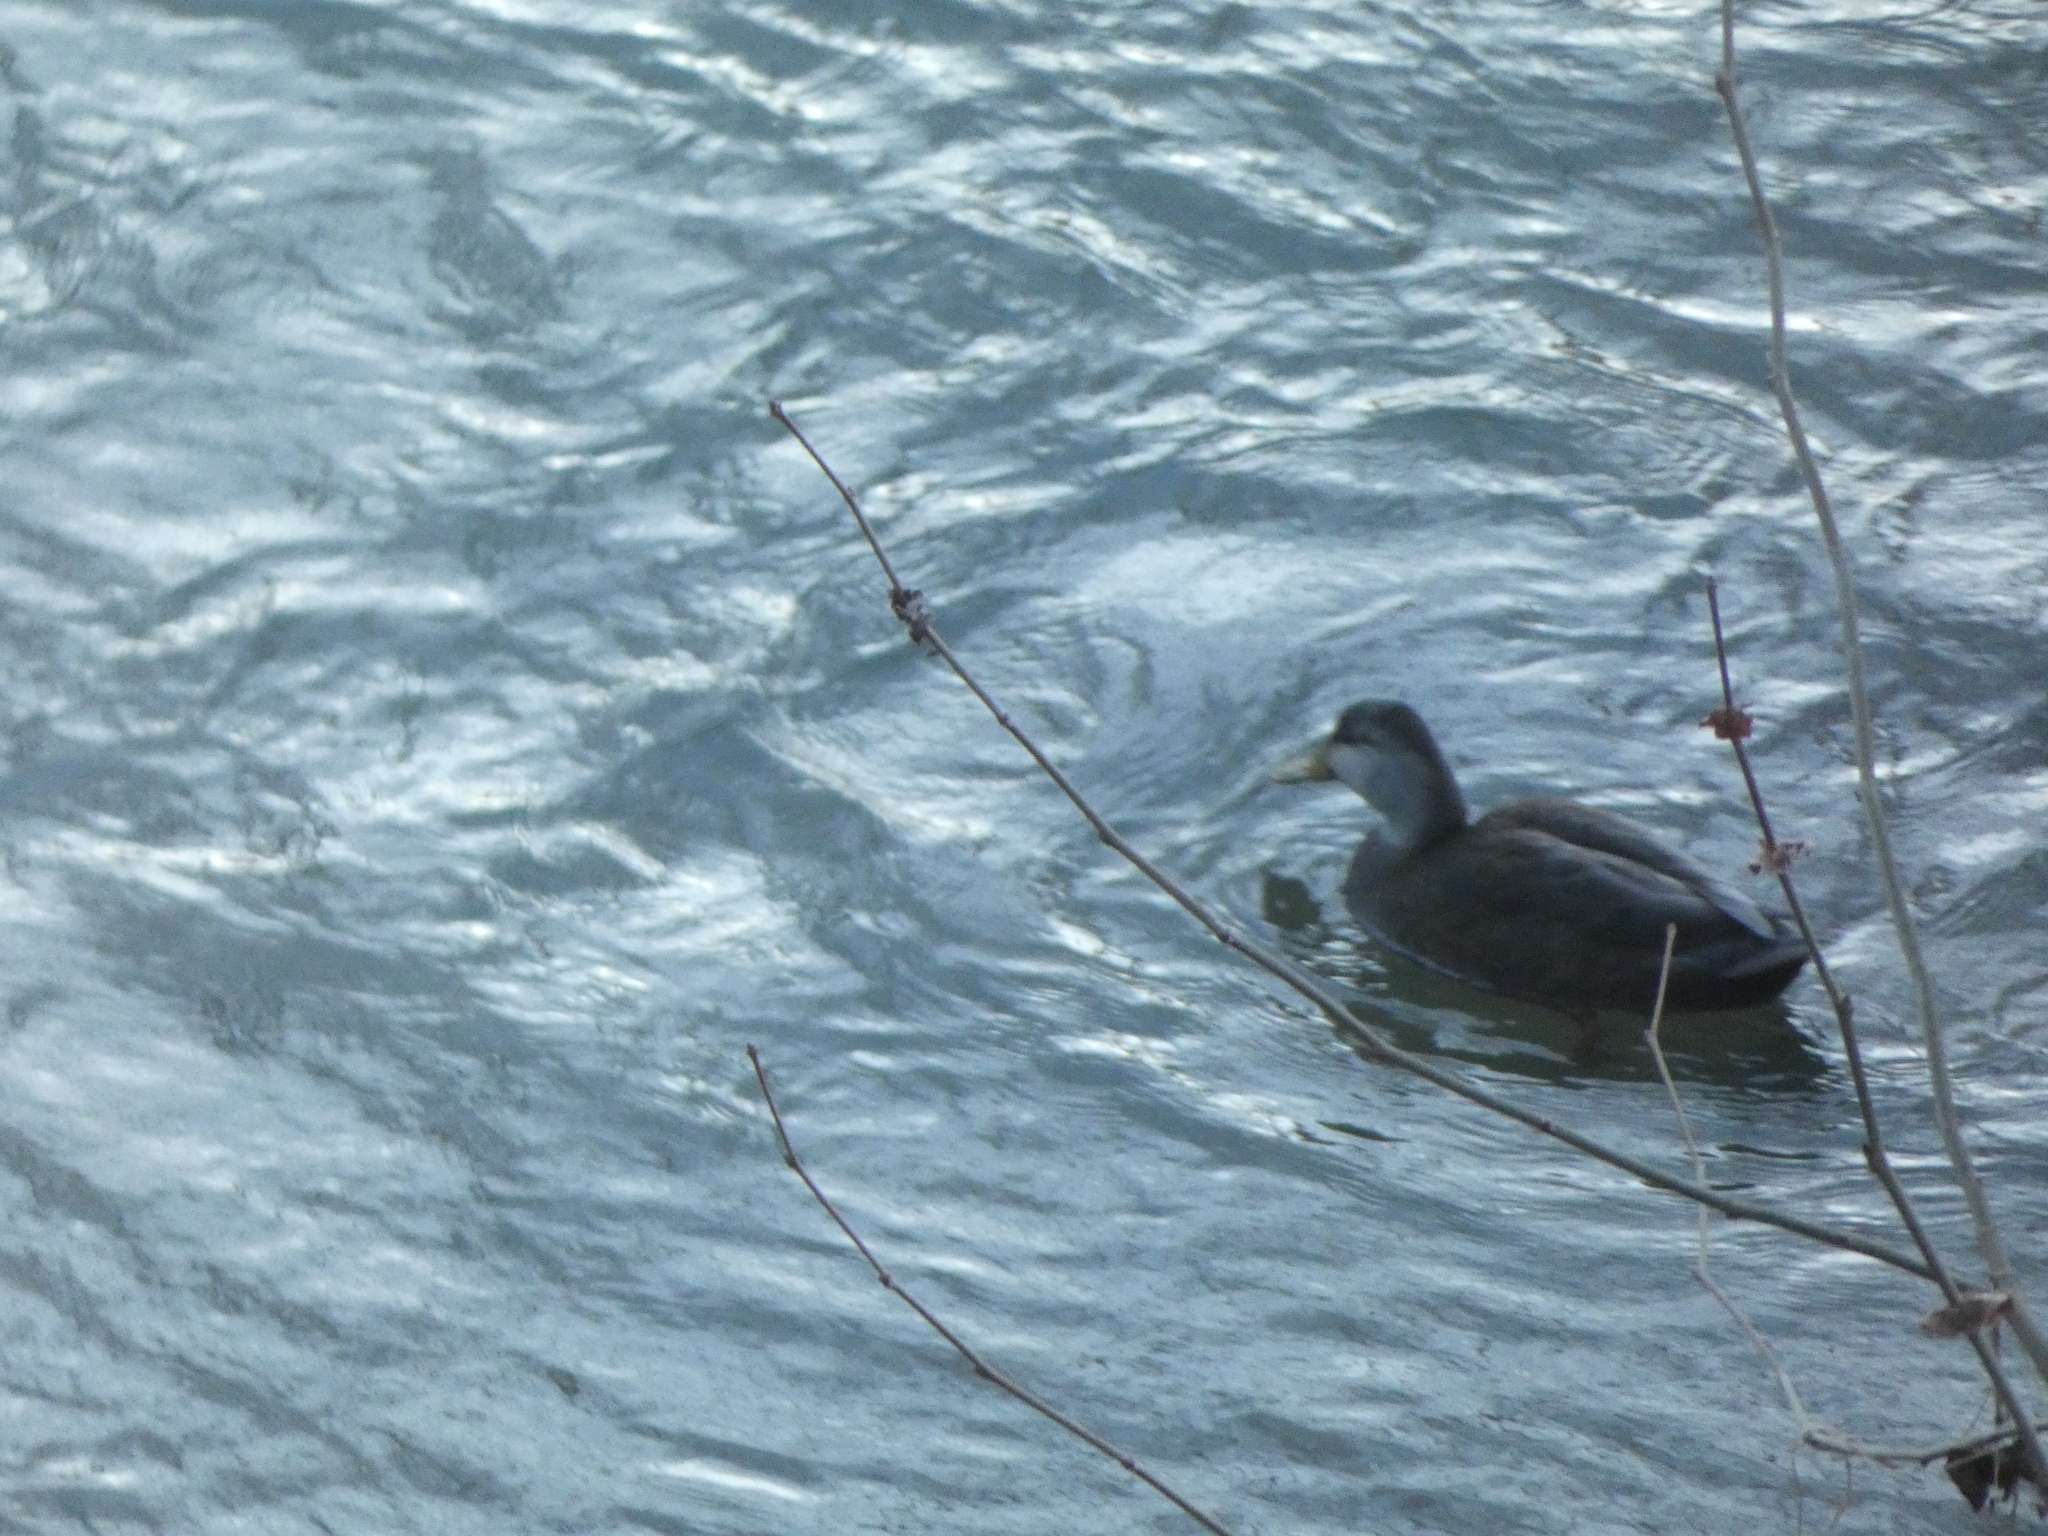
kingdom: Animalia
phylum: Chordata
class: Aves
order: Anseriformes
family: Anatidae
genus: Branta
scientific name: Branta canadensis
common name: Canada goose
